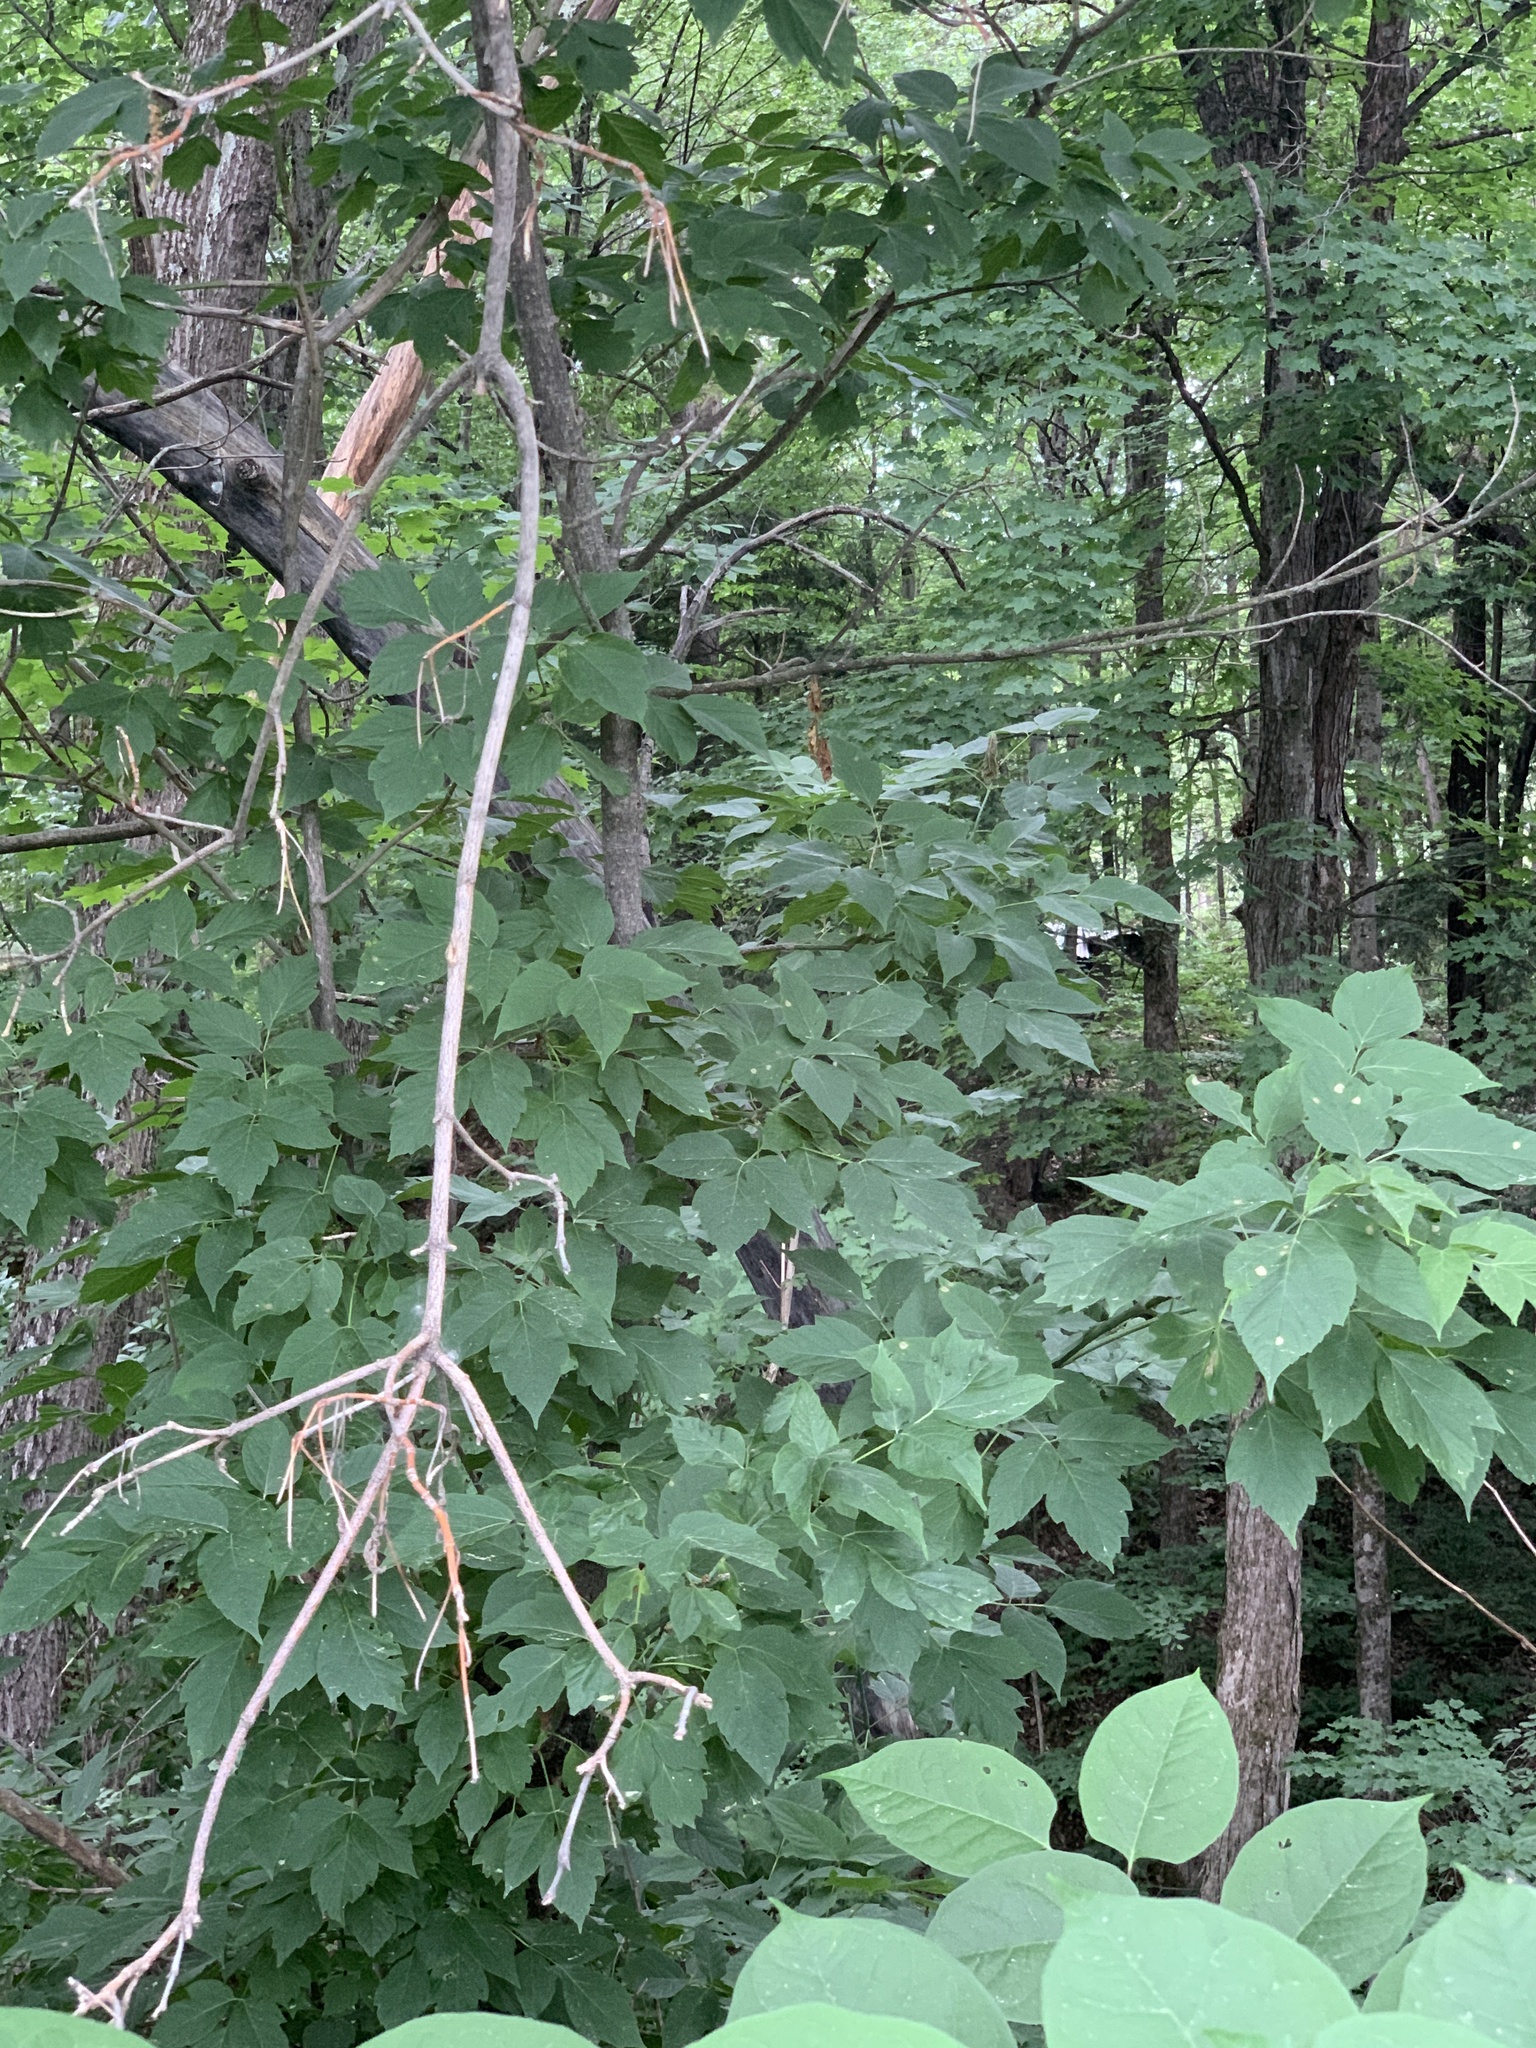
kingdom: Plantae
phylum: Tracheophyta
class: Magnoliopsida
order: Sapindales
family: Sapindaceae
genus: Acer
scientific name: Acer negundo
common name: Ashleaf maple
